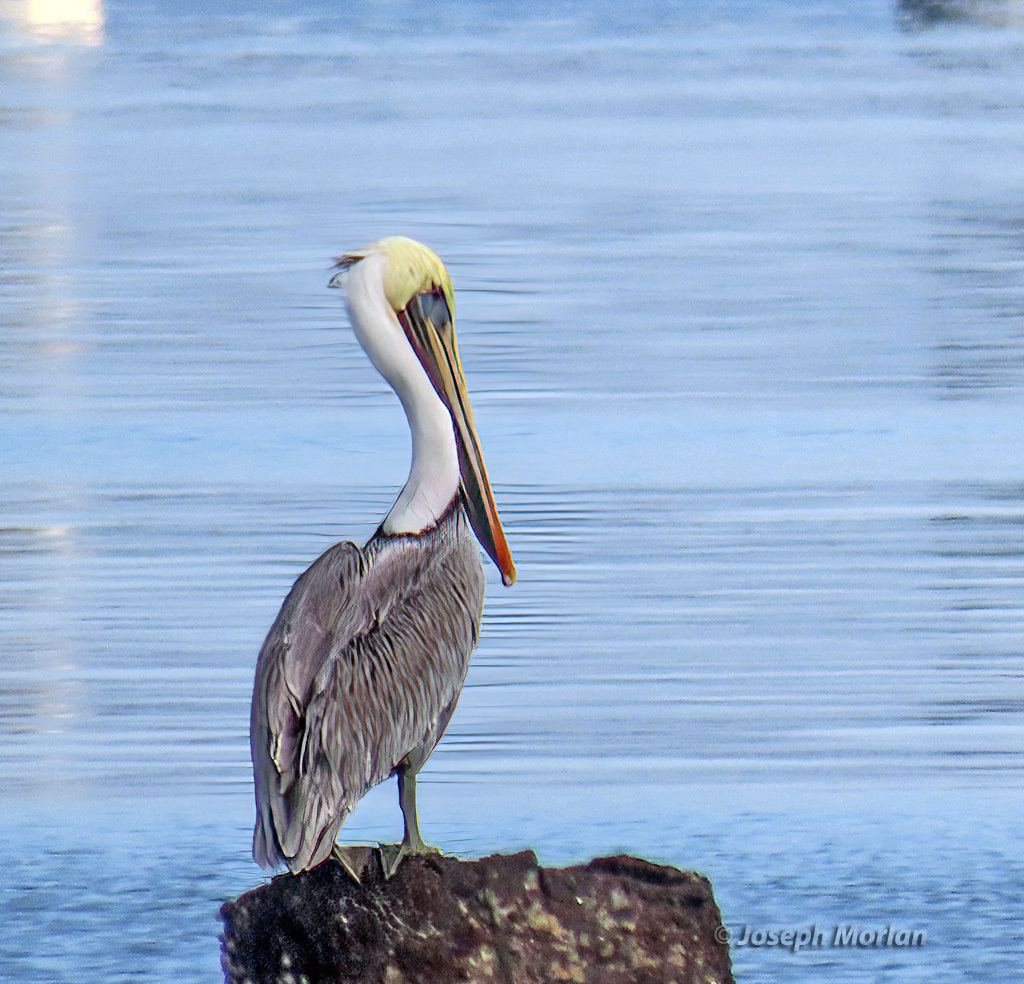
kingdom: Animalia
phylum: Chordata
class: Aves
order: Pelecaniformes
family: Pelecanidae
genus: Pelecanus
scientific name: Pelecanus occidentalis
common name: Brown pelican
